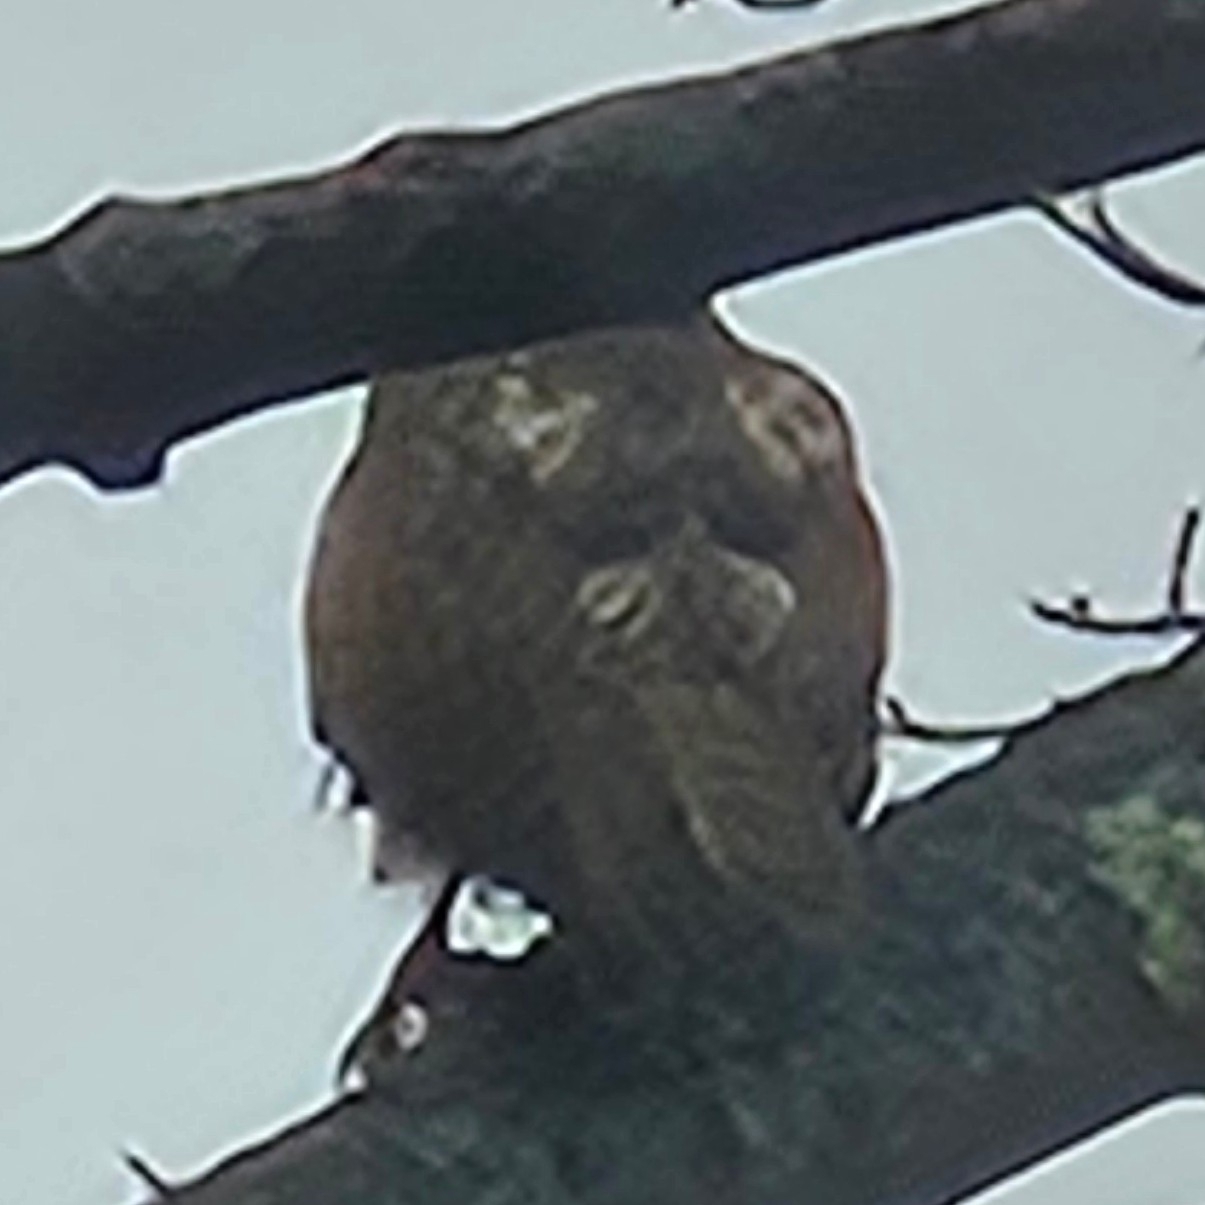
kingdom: Animalia
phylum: Chordata
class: Aves
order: Accipitriformes
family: Accipitridae
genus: Accipiter
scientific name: Accipiter cooperii
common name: Cooper's hawk
